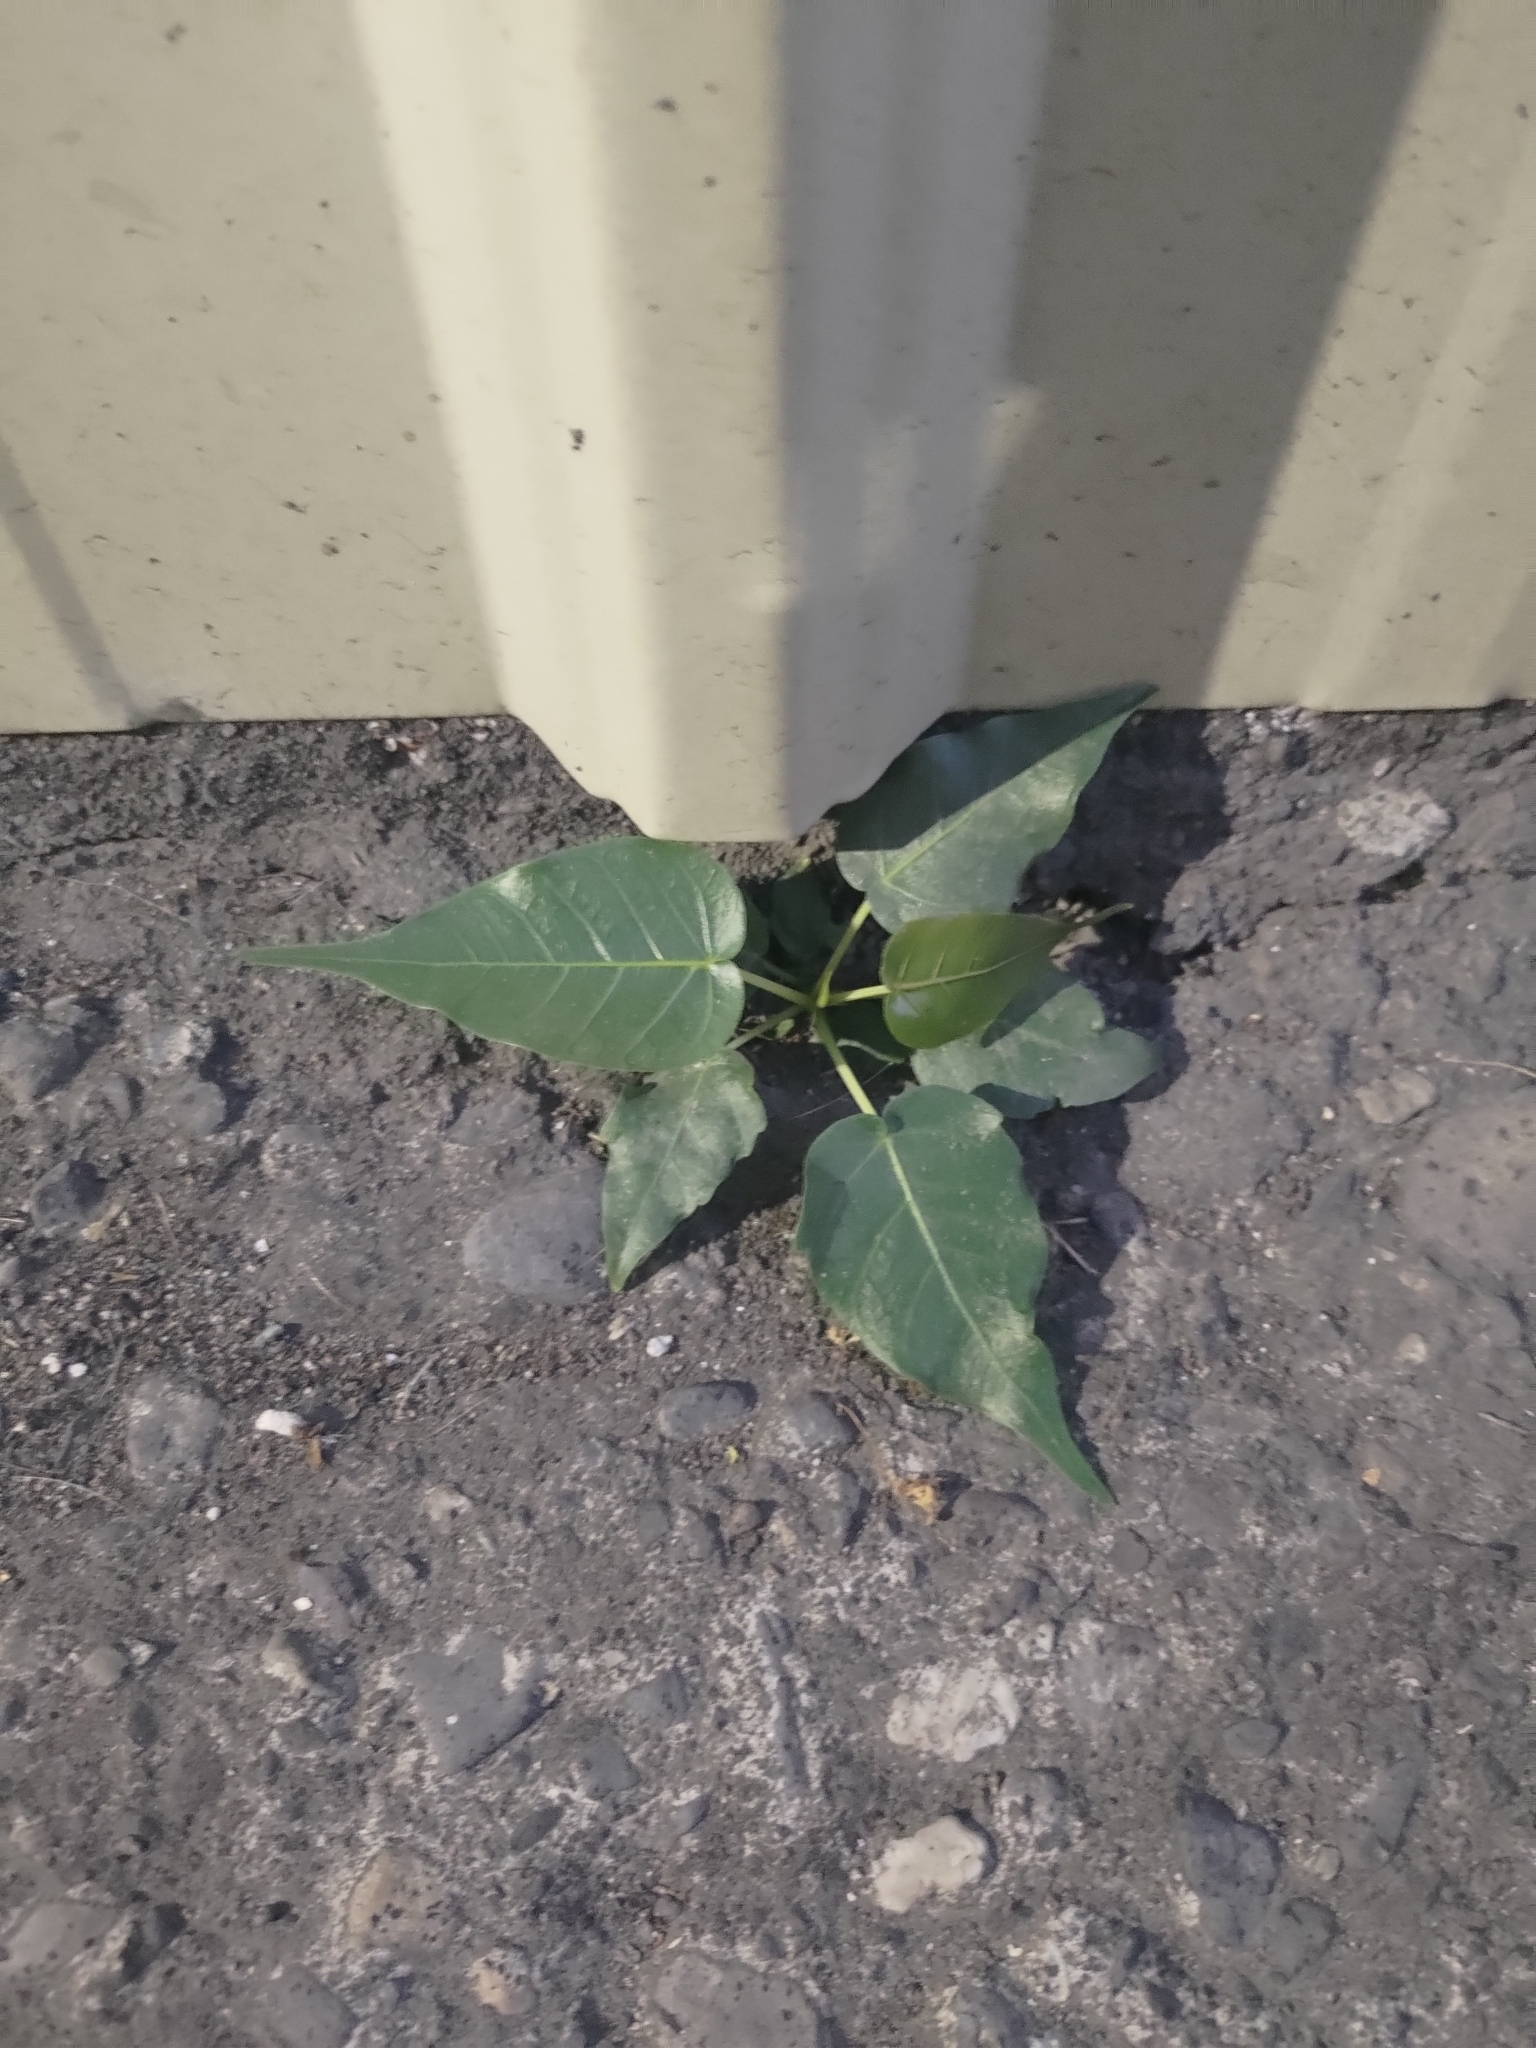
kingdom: Plantae
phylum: Tracheophyta
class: Magnoliopsida
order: Rosales
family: Moraceae
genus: Ficus
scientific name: Ficus religiosa
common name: Bodhi tree
